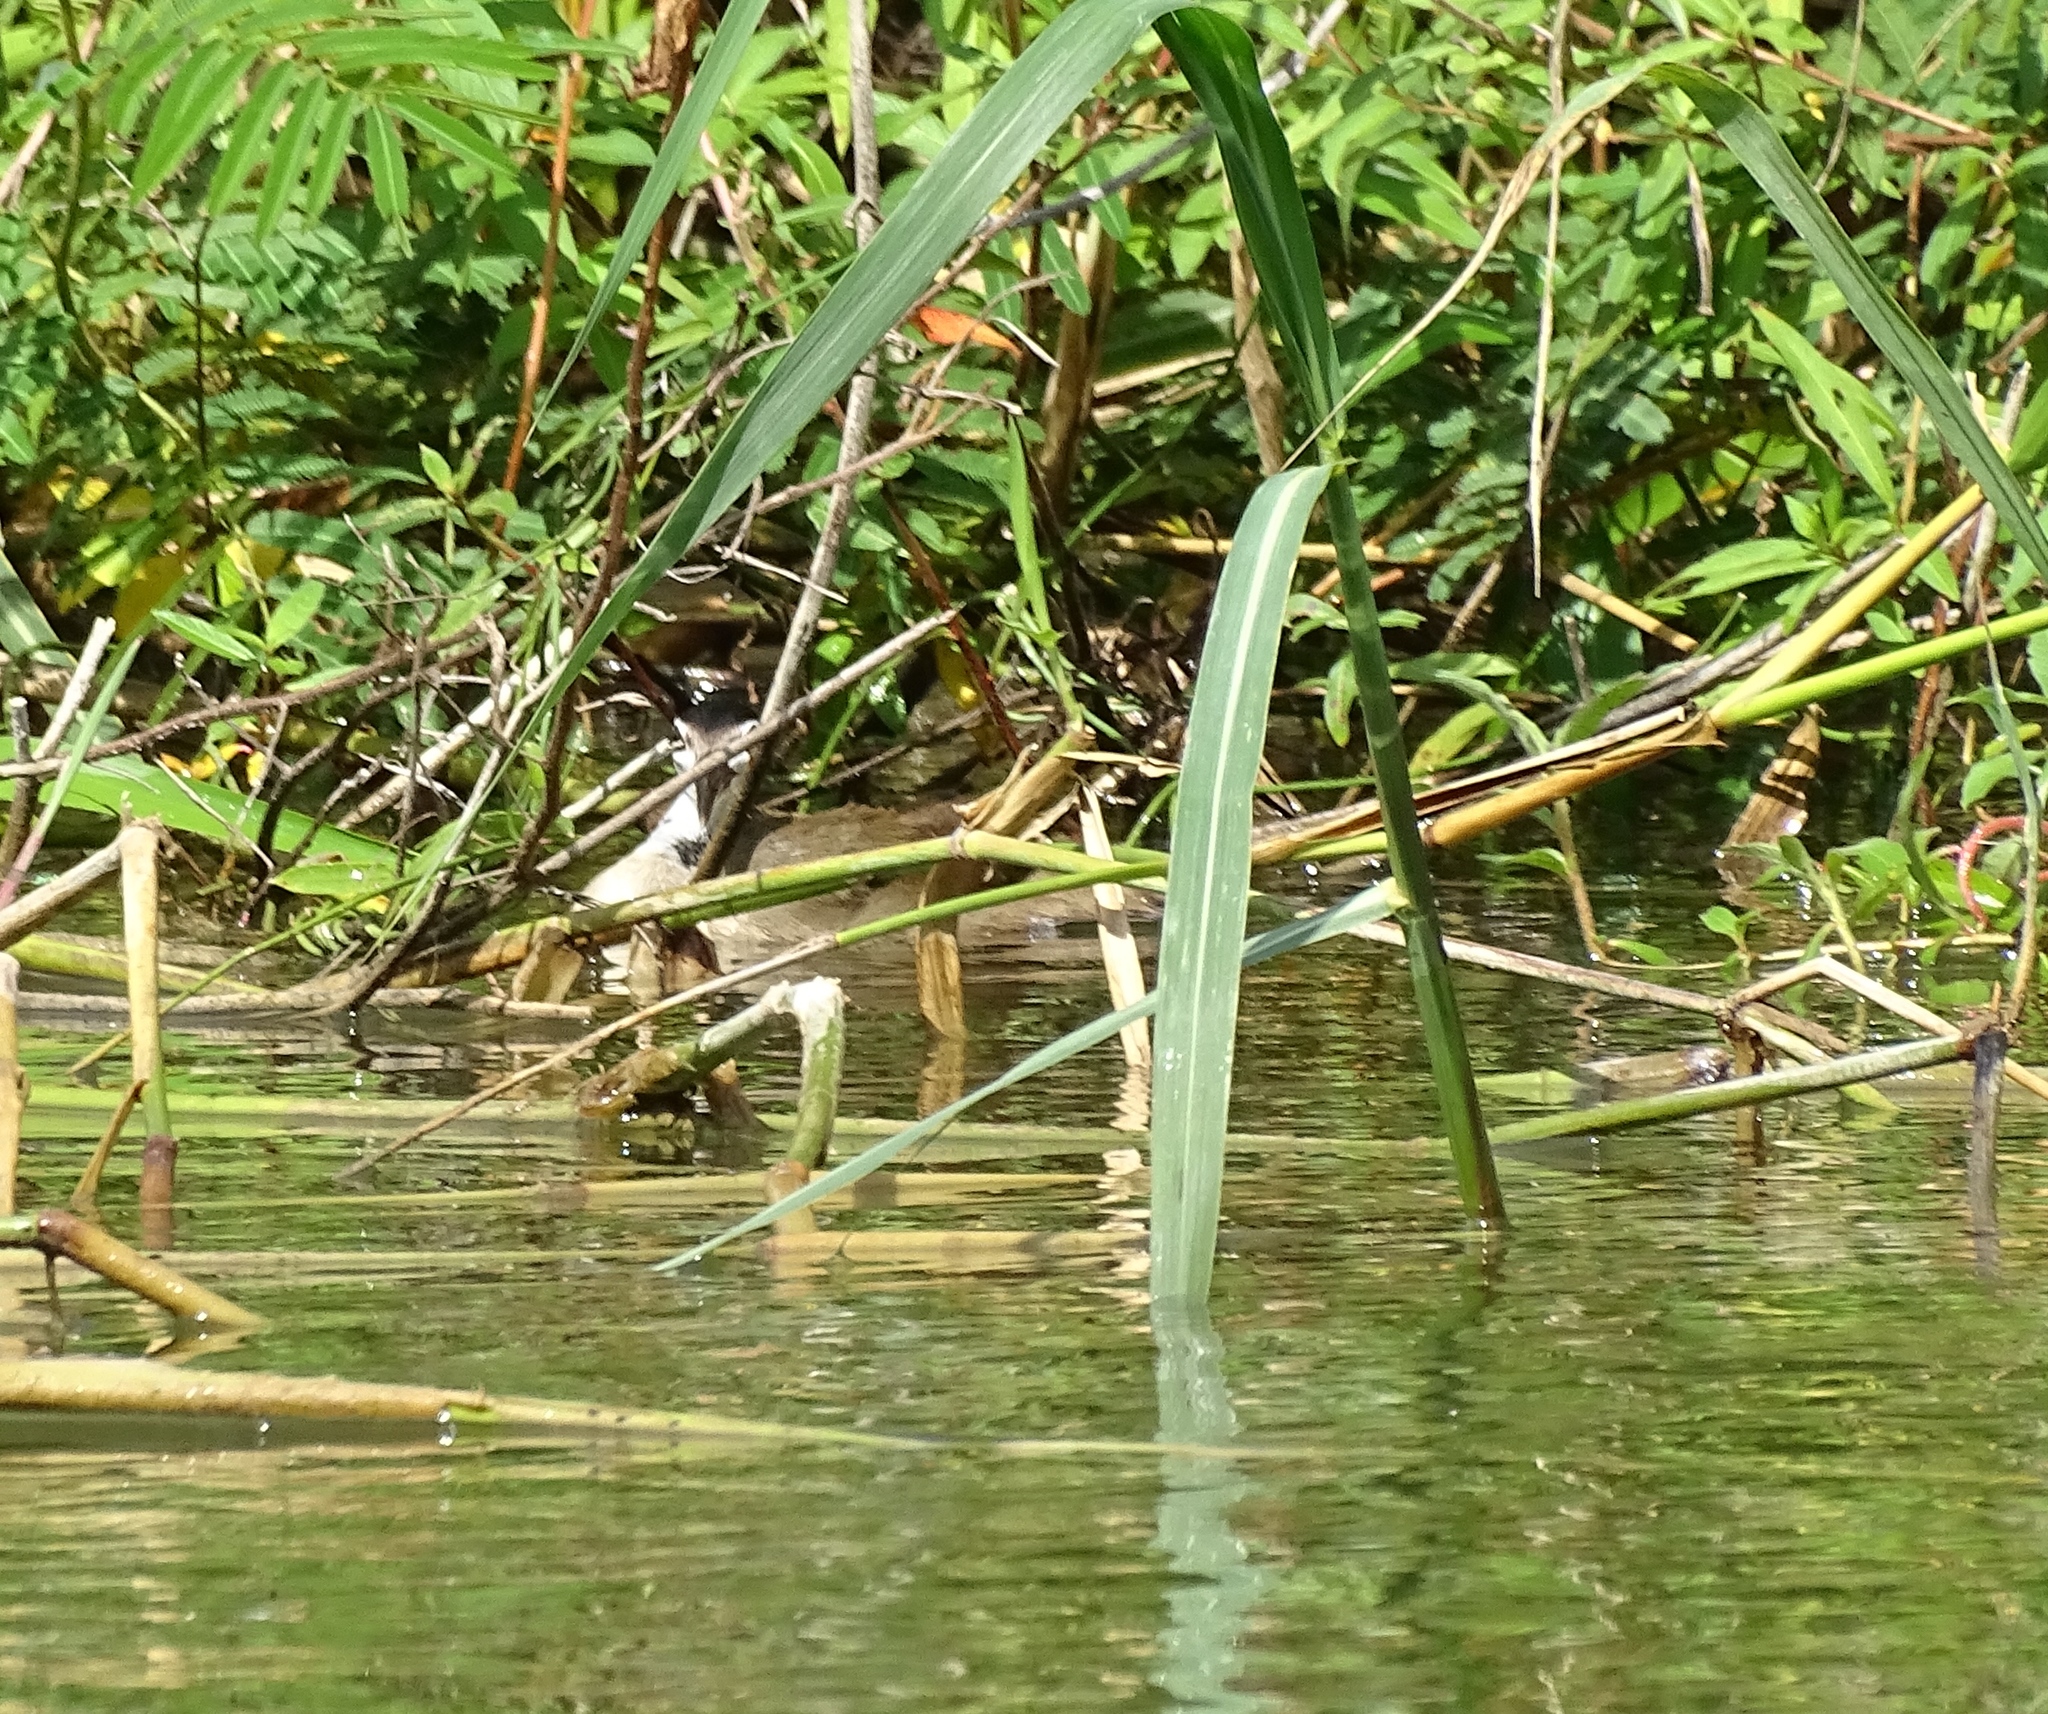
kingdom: Animalia
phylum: Chordata
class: Aves
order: Gruiformes
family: Heliornithidae
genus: Heliornis
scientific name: Heliornis fulica
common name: Sungrebe
